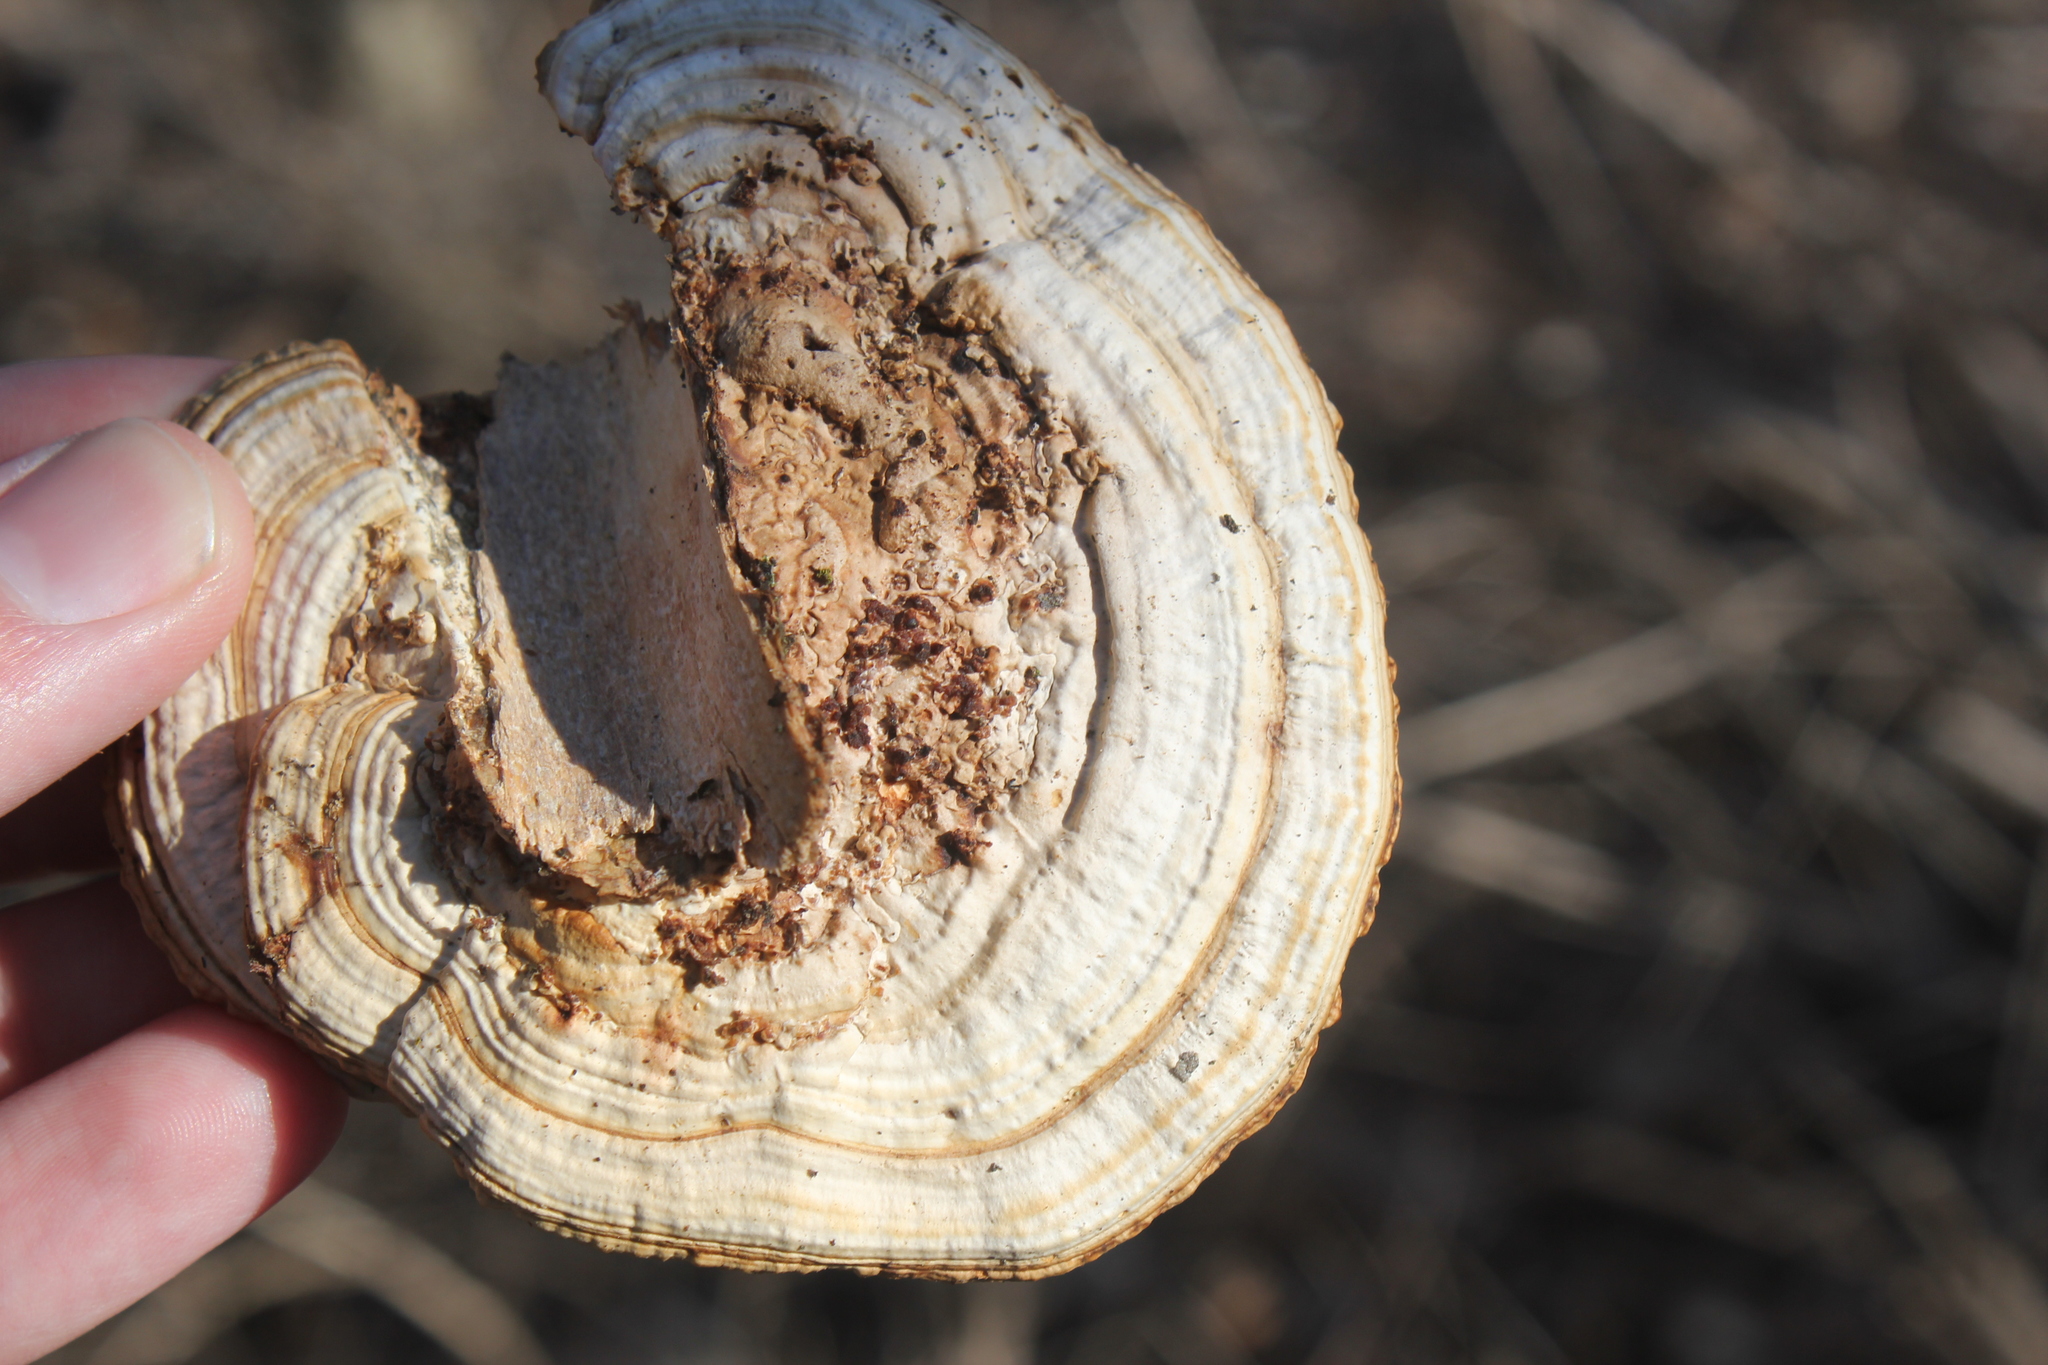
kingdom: Fungi
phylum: Basidiomycota
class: Agaricomycetes
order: Polyporales
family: Polyporaceae
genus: Daedaleopsis
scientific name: Daedaleopsis confragosa
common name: Blushing bracket
